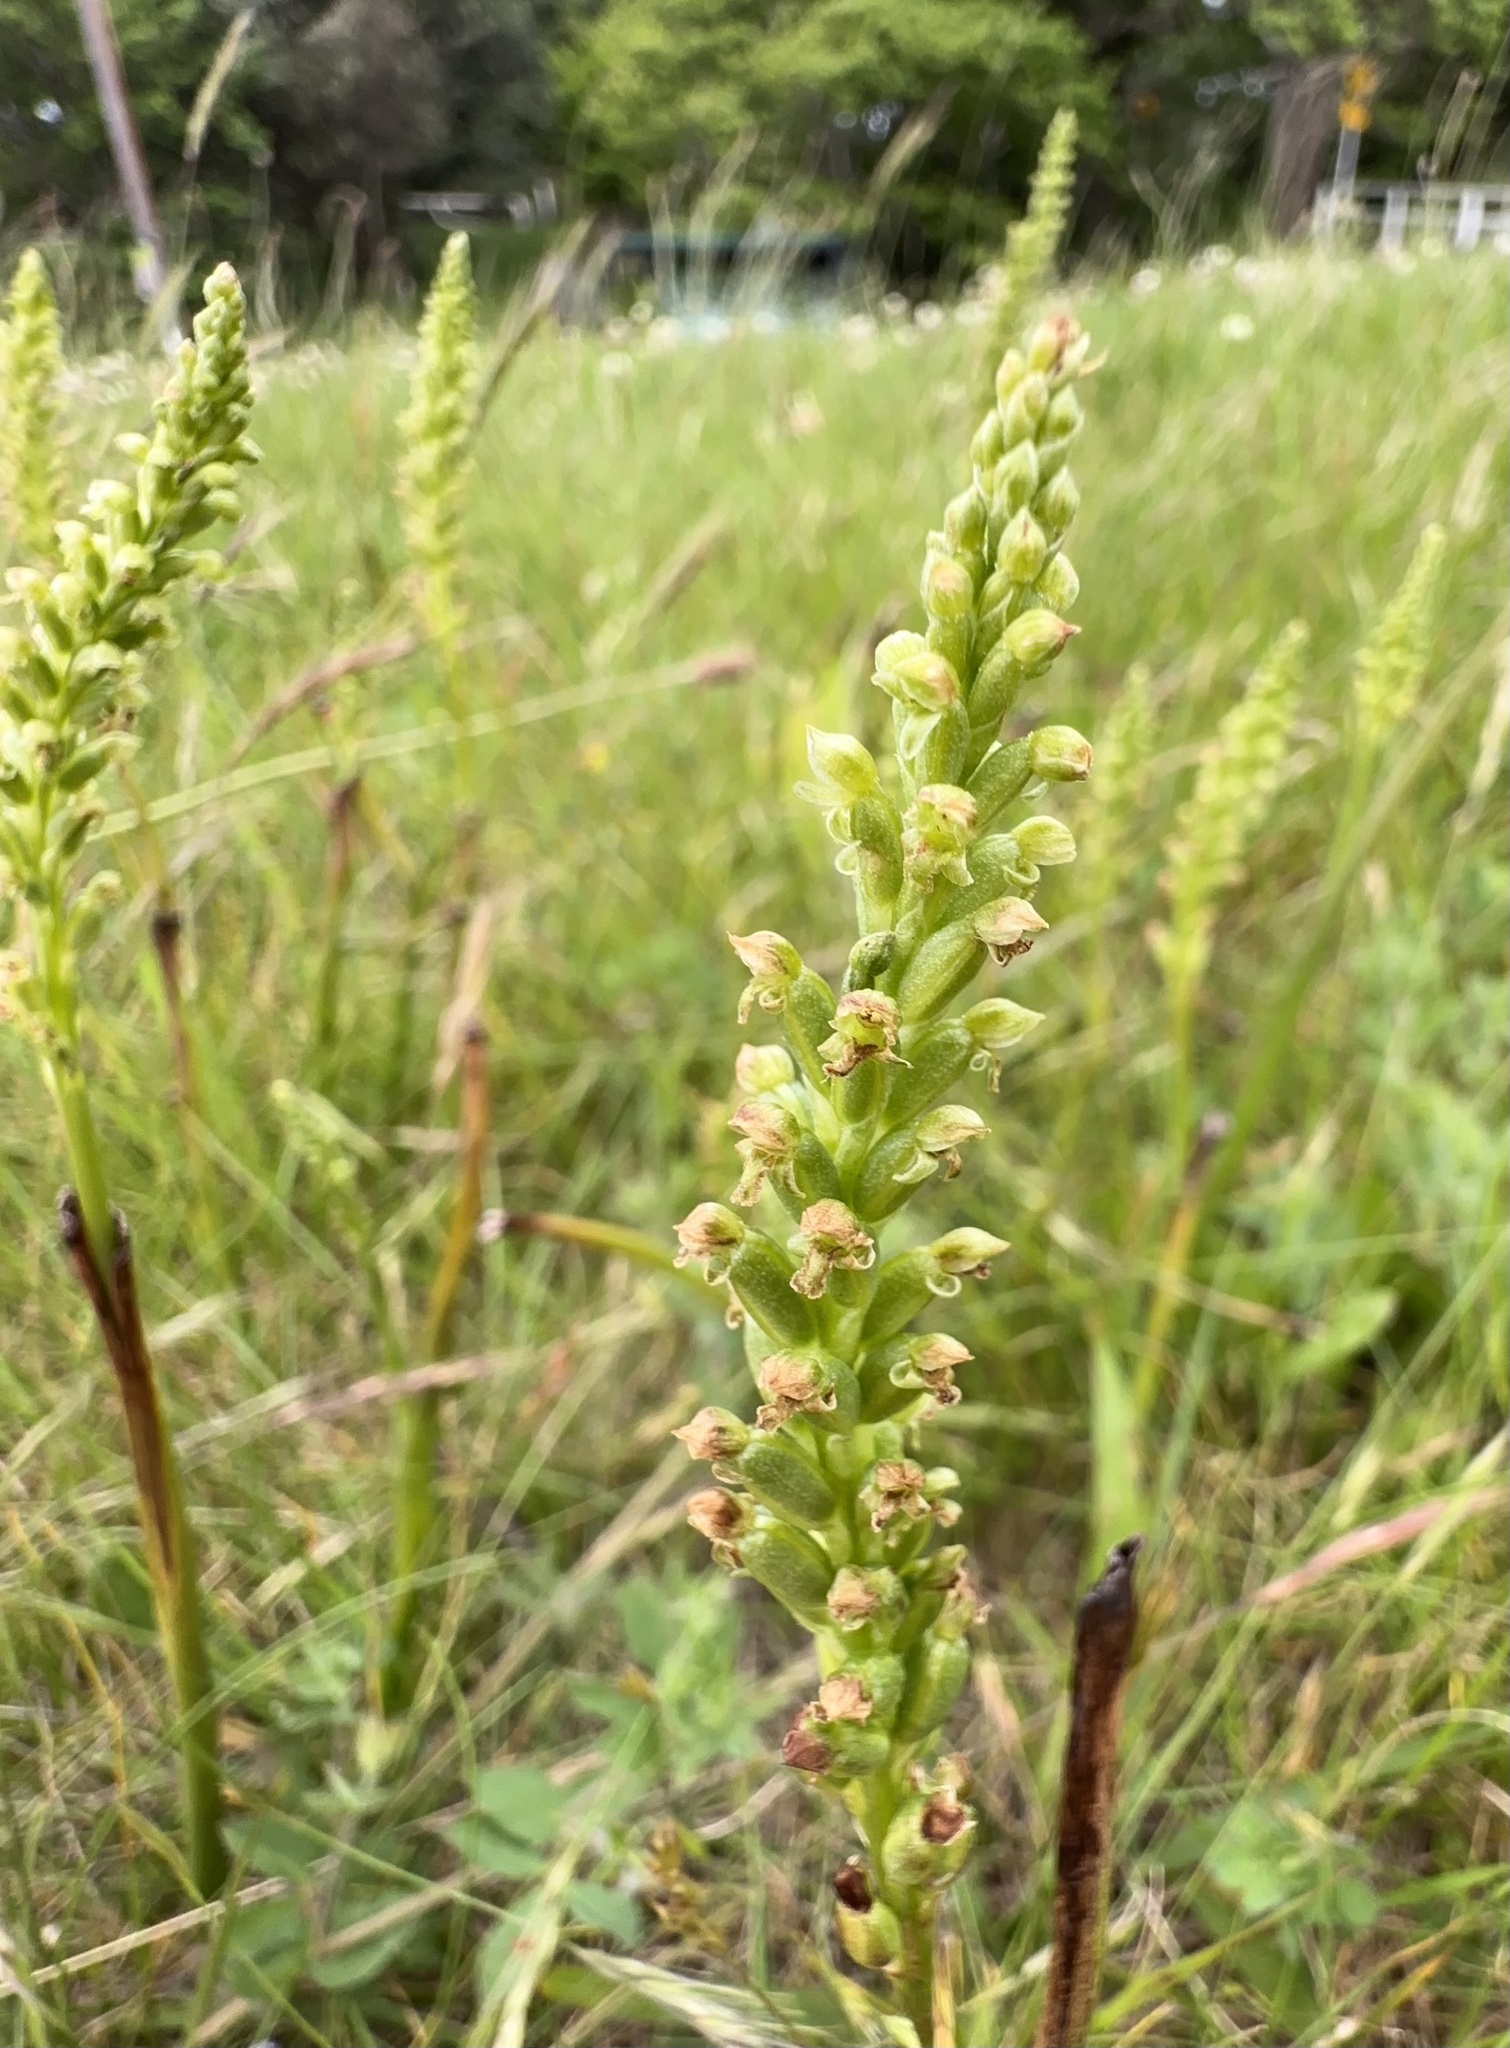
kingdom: Plantae
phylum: Tracheophyta
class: Liliopsida
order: Asparagales
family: Orchidaceae
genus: Microtis
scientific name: Microtis unifolia
